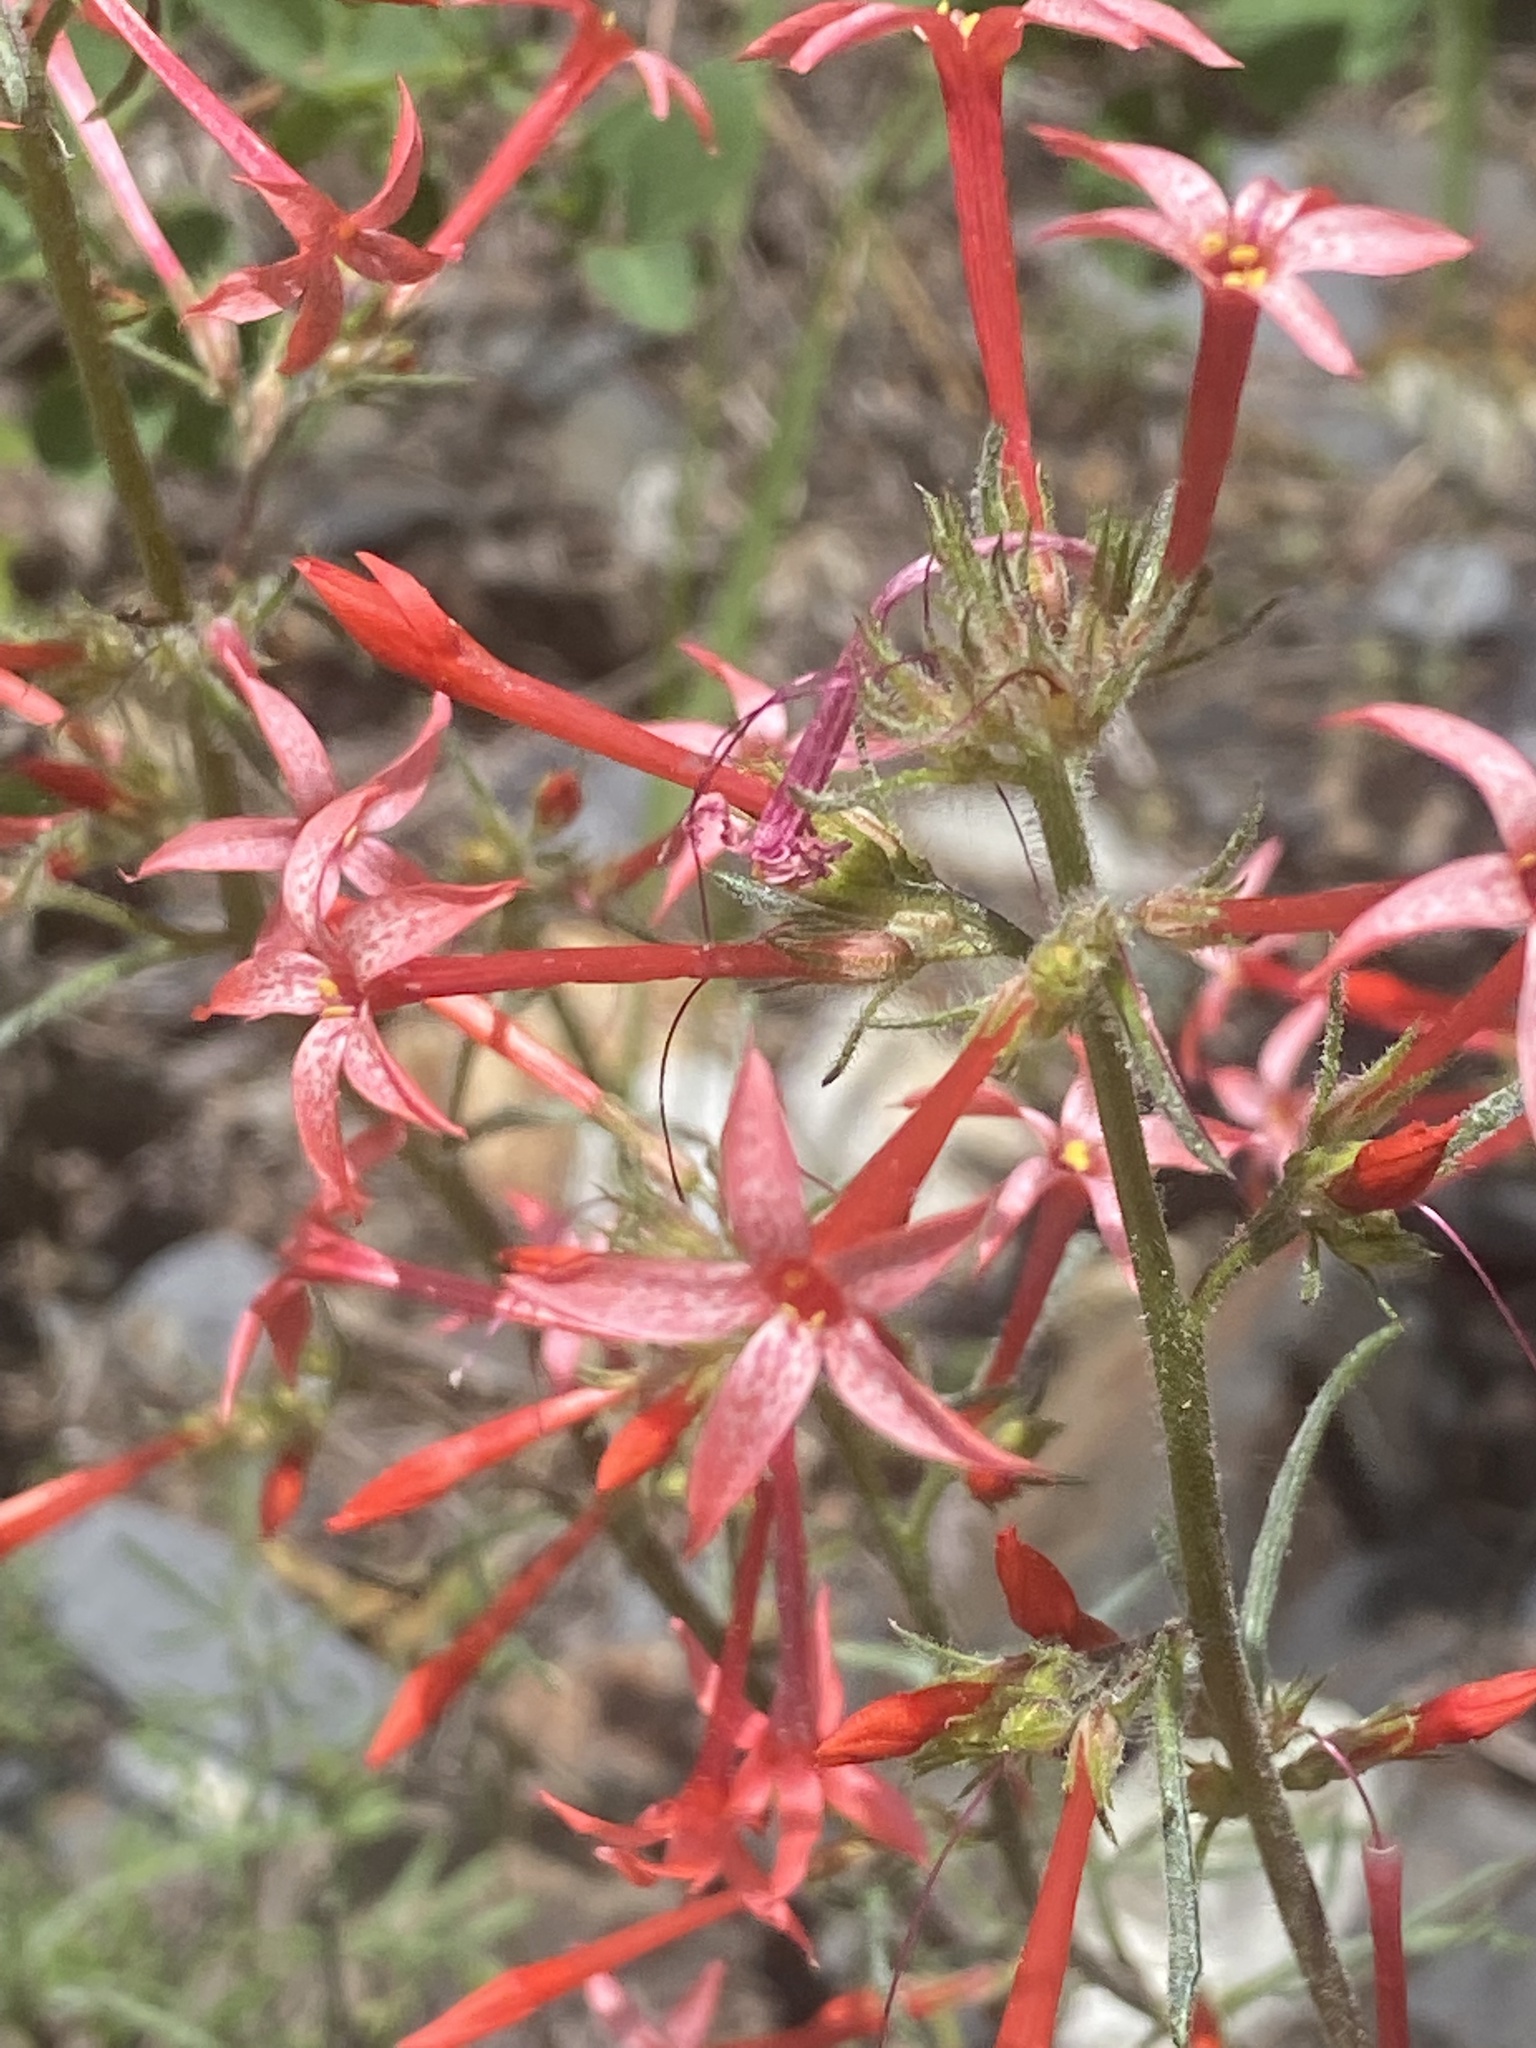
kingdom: Plantae
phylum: Tracheophyta
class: Magnoliopsida
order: Ericales
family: Polemoniaceae
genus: Ipomopsis
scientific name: Ipomopsis aggregata
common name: Scarlet gilia
